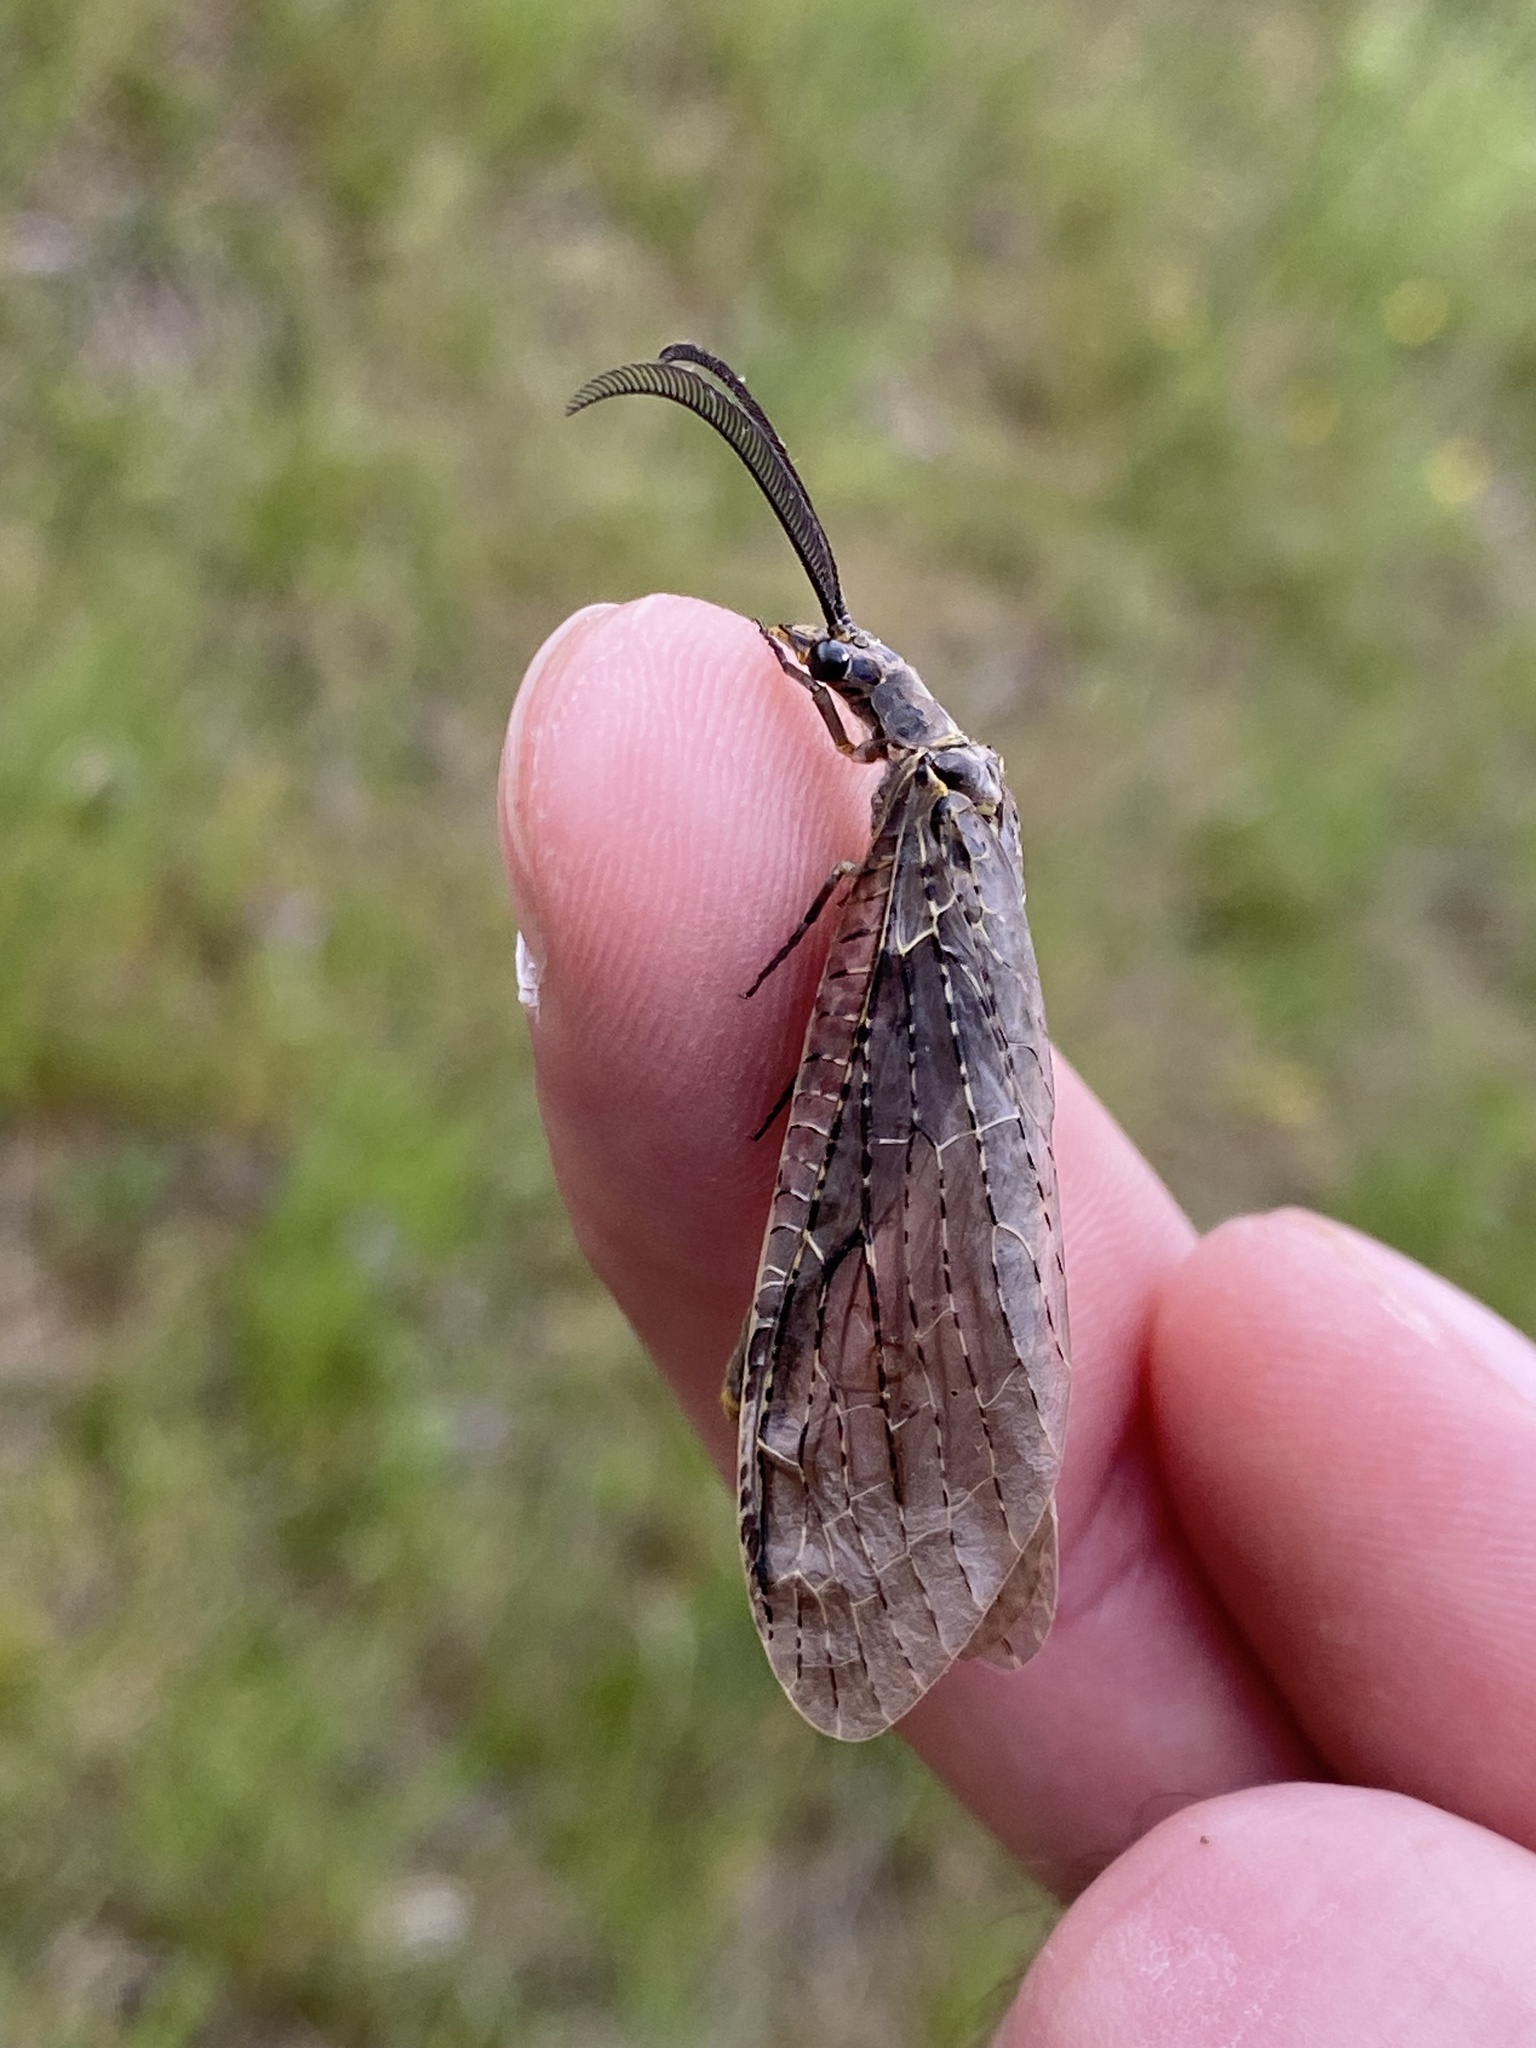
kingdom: Animalia
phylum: Arthropoda
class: Insecta
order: Megaloptera
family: Corydalidae
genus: Chauliodes
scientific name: Chauliodes rastricornis
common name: Spring fishfly
